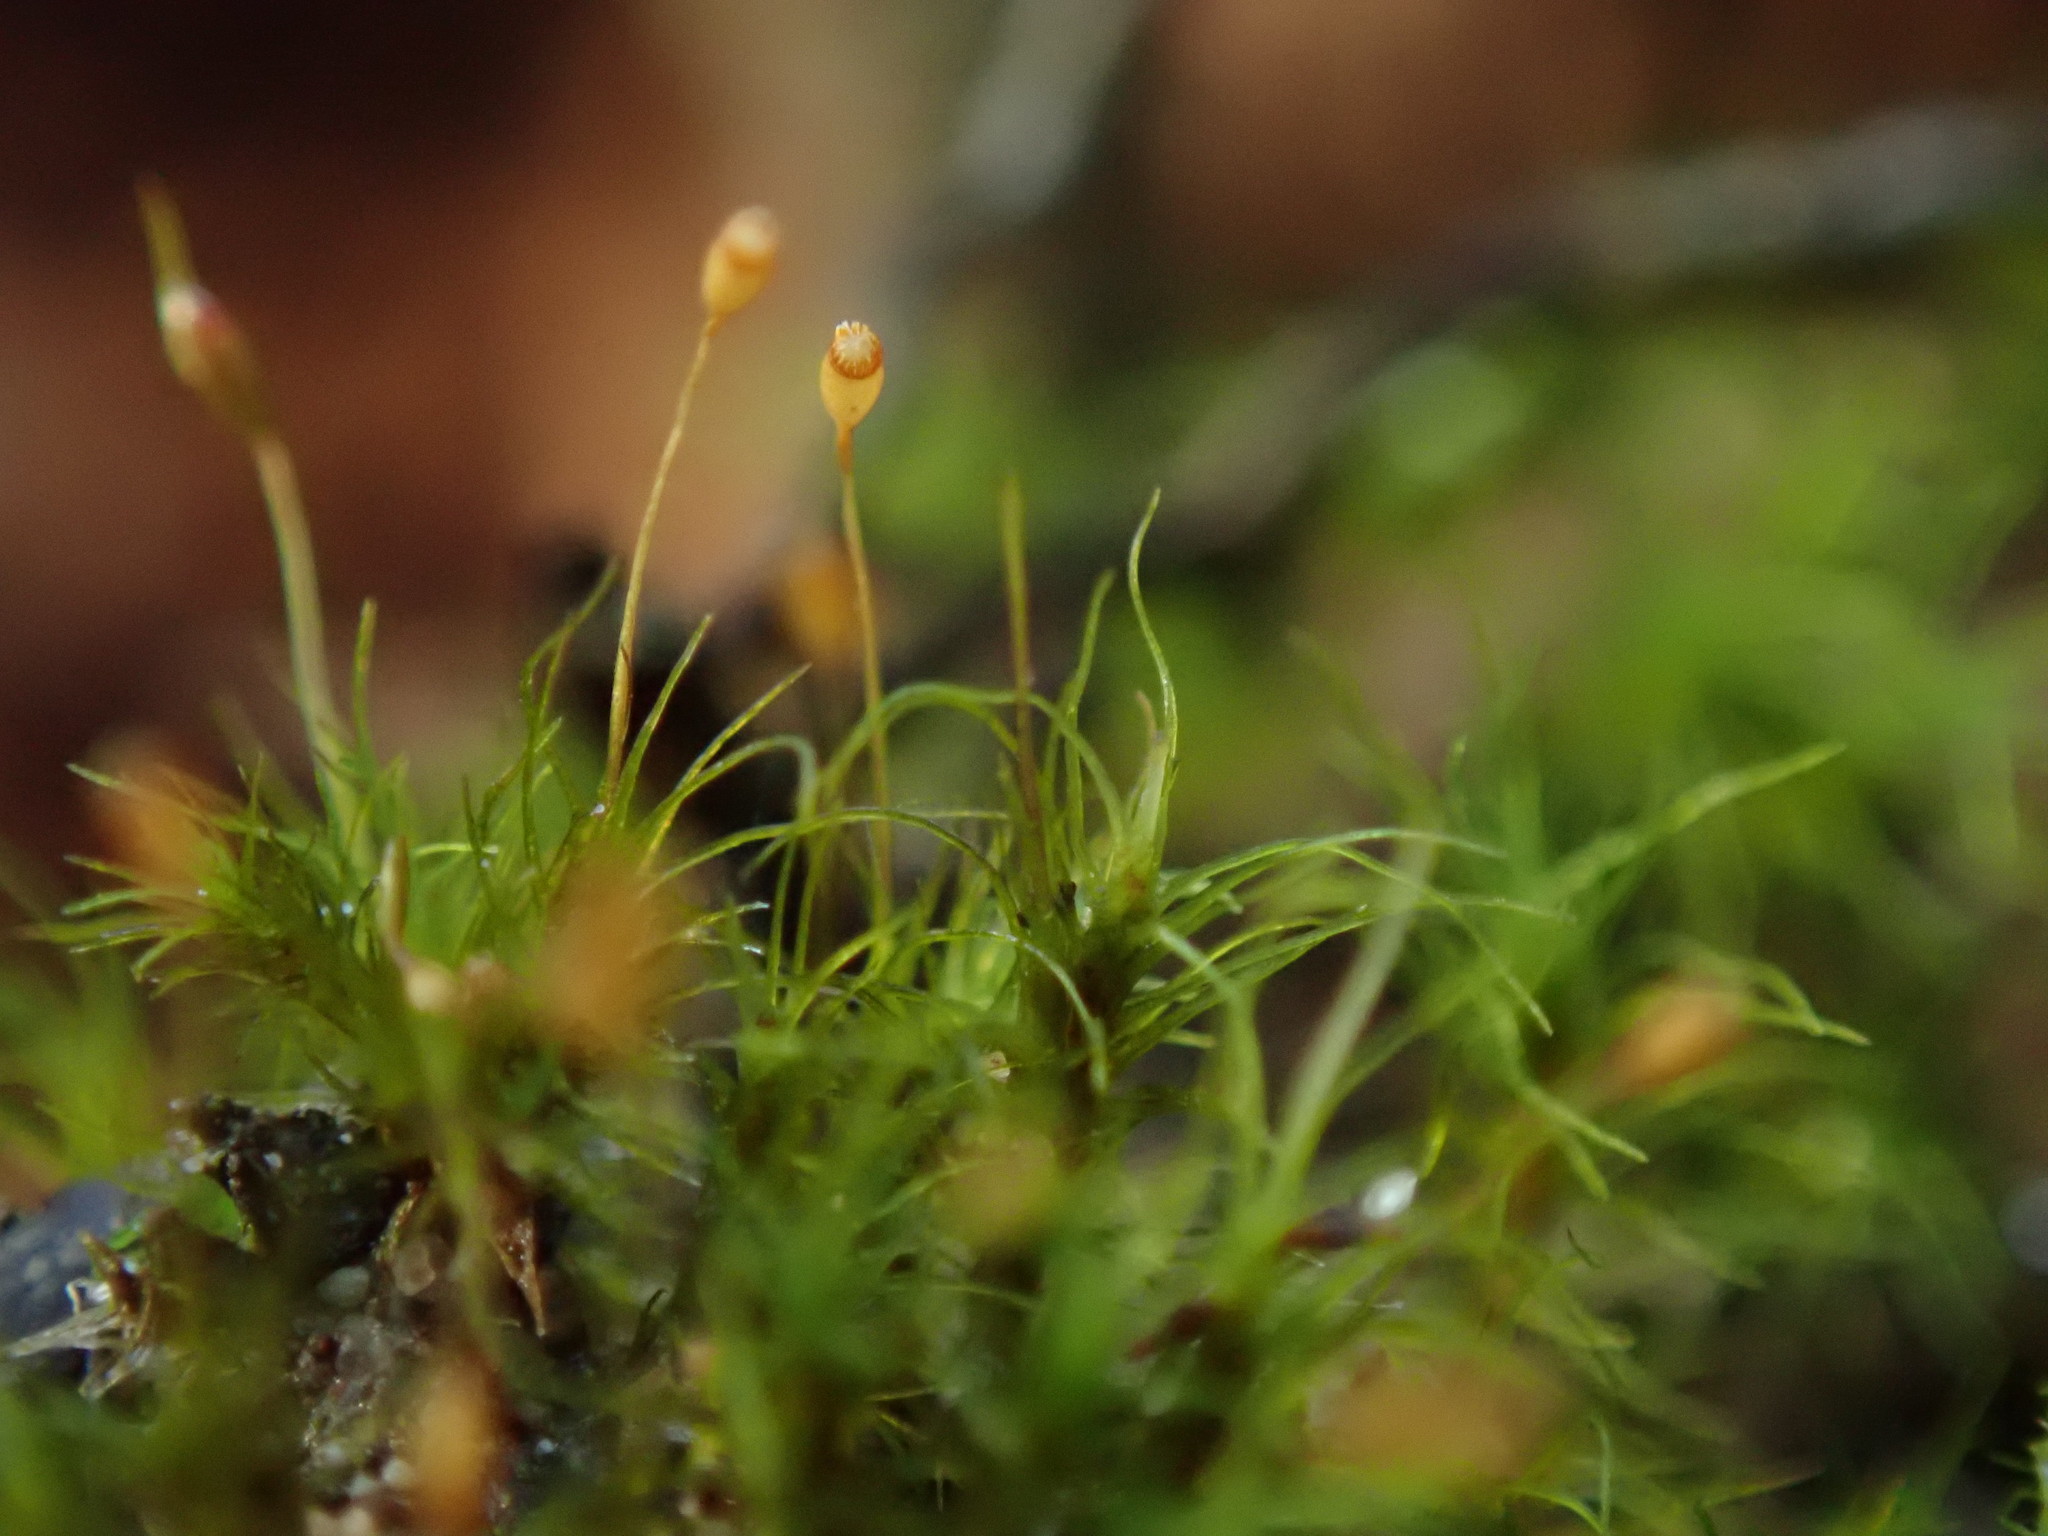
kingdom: Plantae
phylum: Bryophyta
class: Bryopsida
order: Dicranales
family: Dicranellaceae
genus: Dicranella
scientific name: Dicranella heteromalla
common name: Silky forklet moss
